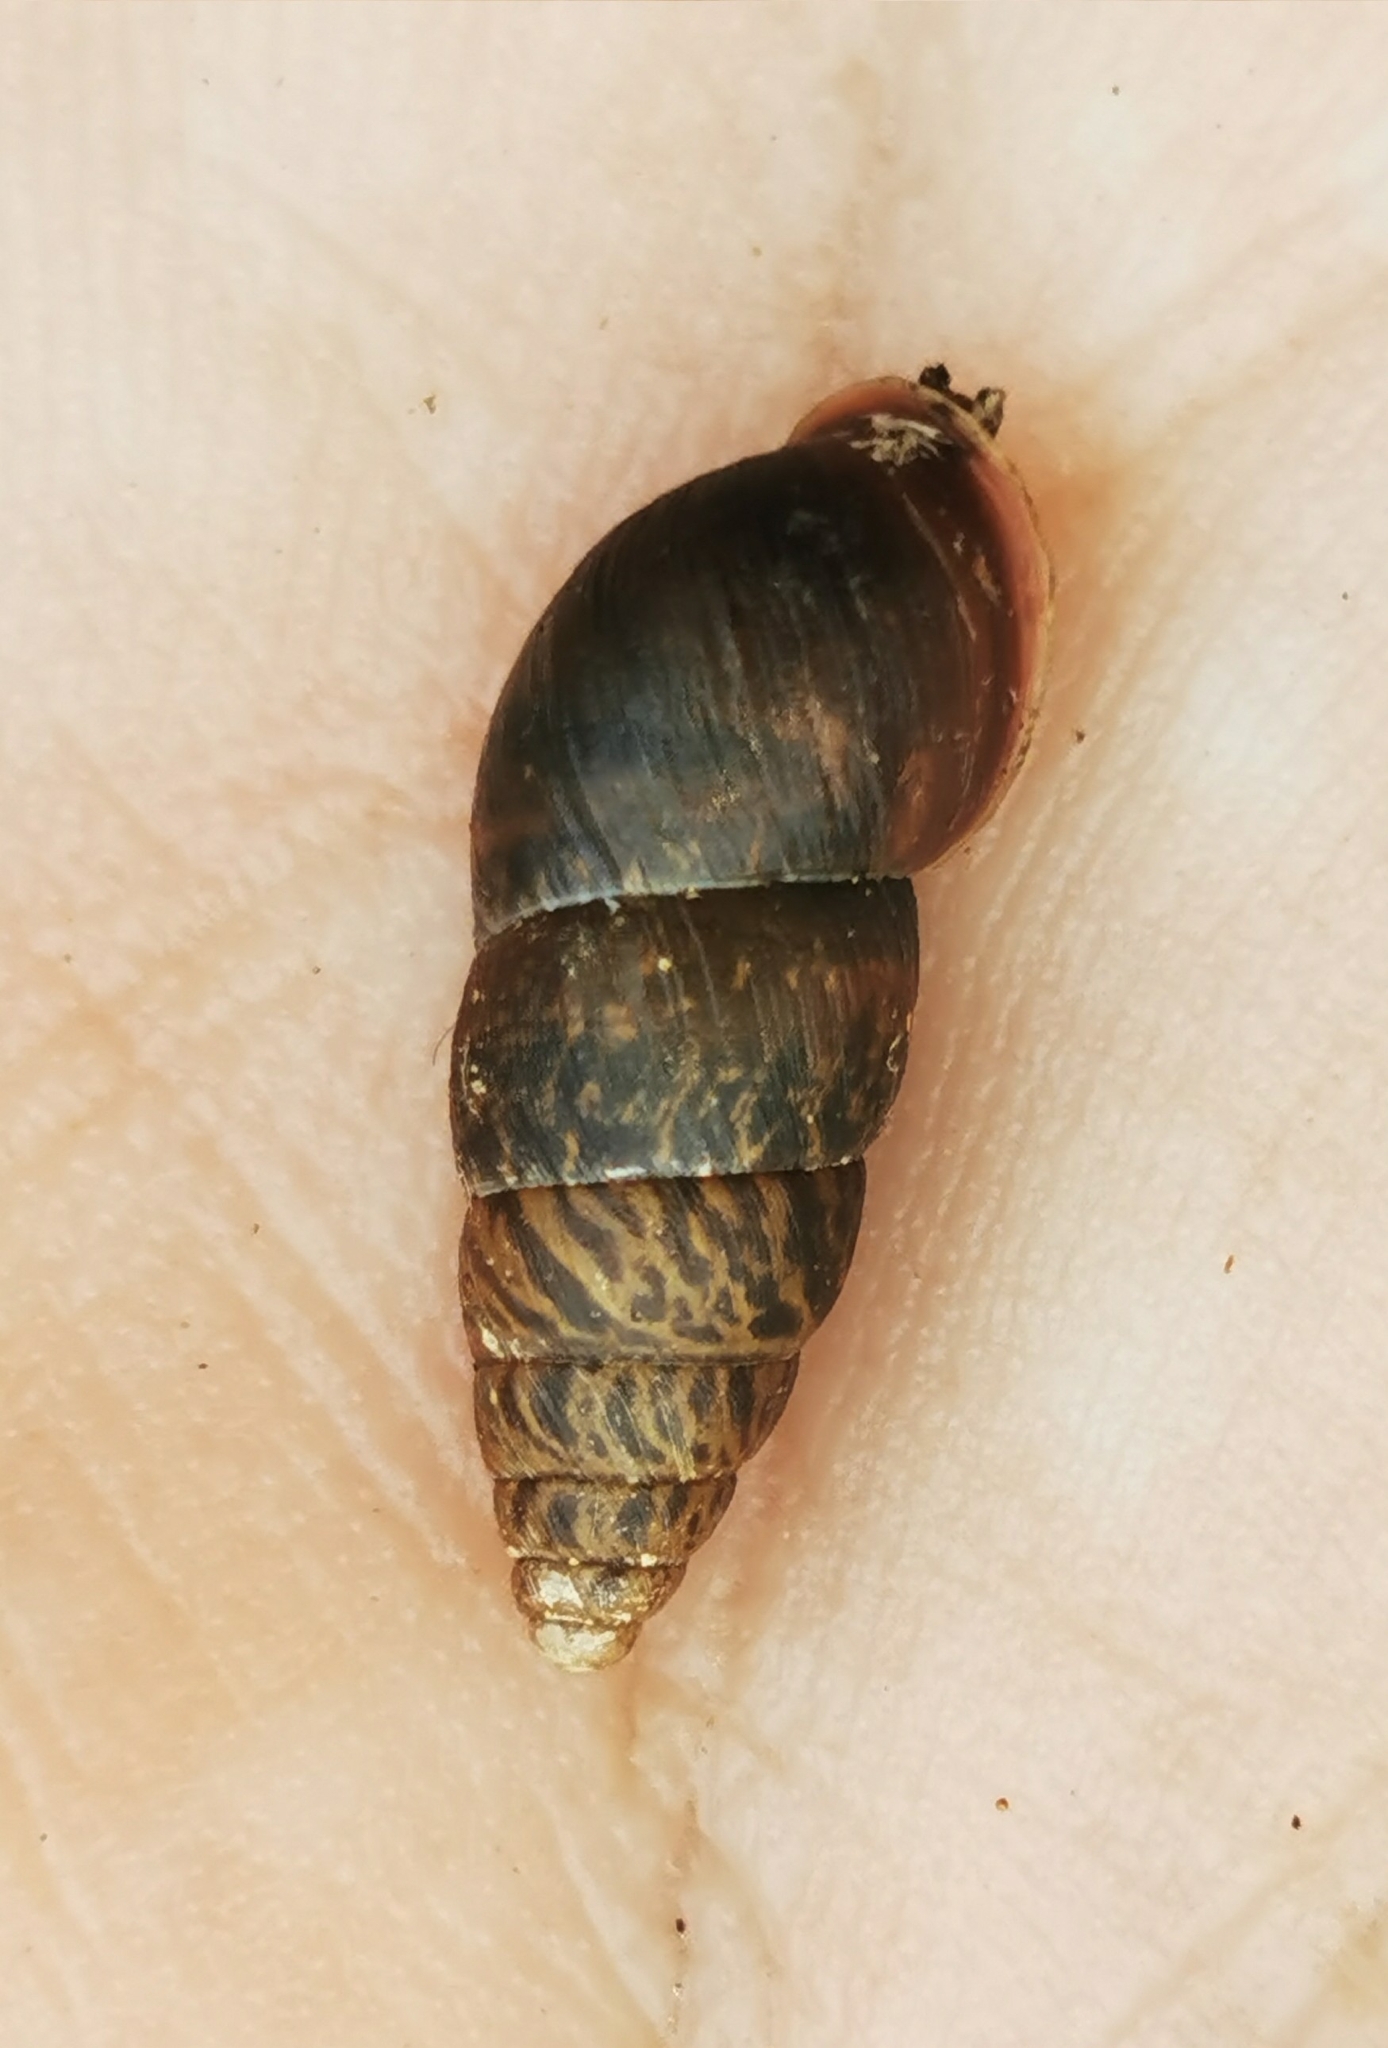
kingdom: Animalia
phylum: Mollusca
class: Gastropoda
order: Stylommatophora
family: Enidae
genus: Ena
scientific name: Ena montana
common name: Mountain bulin
